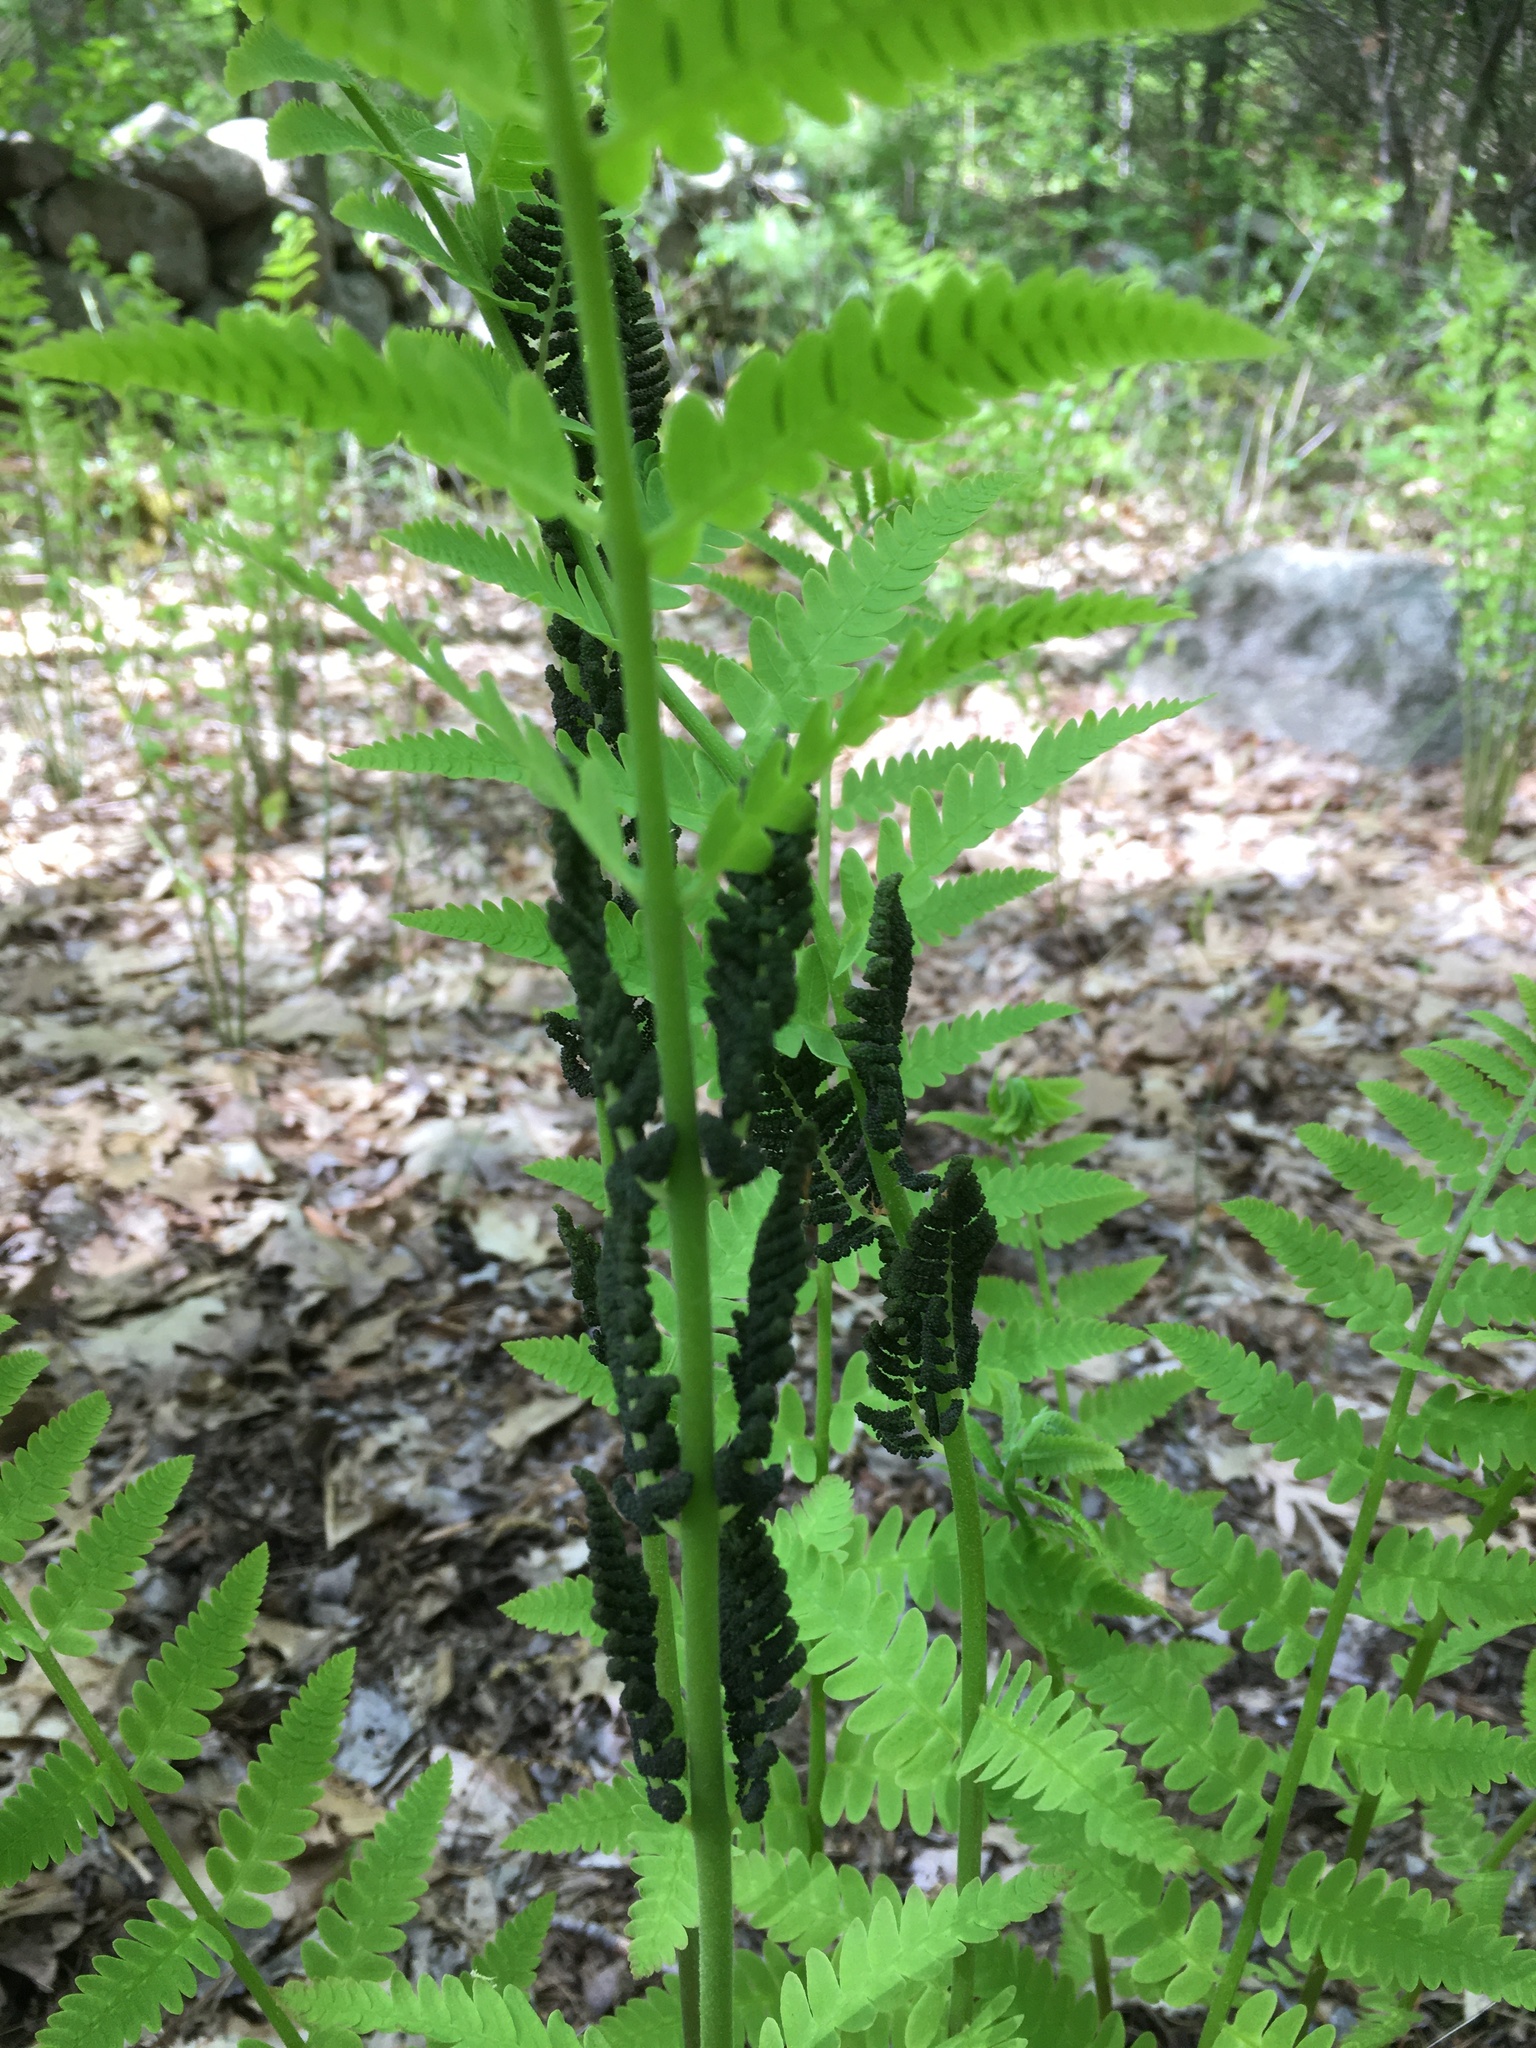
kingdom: Plantae
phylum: Tracheophyta
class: Polypodiopsida
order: Osmundales
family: Osmundaceae
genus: Claytosmunda
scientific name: Claytosmunda claytoniana
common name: Clayton's fern
